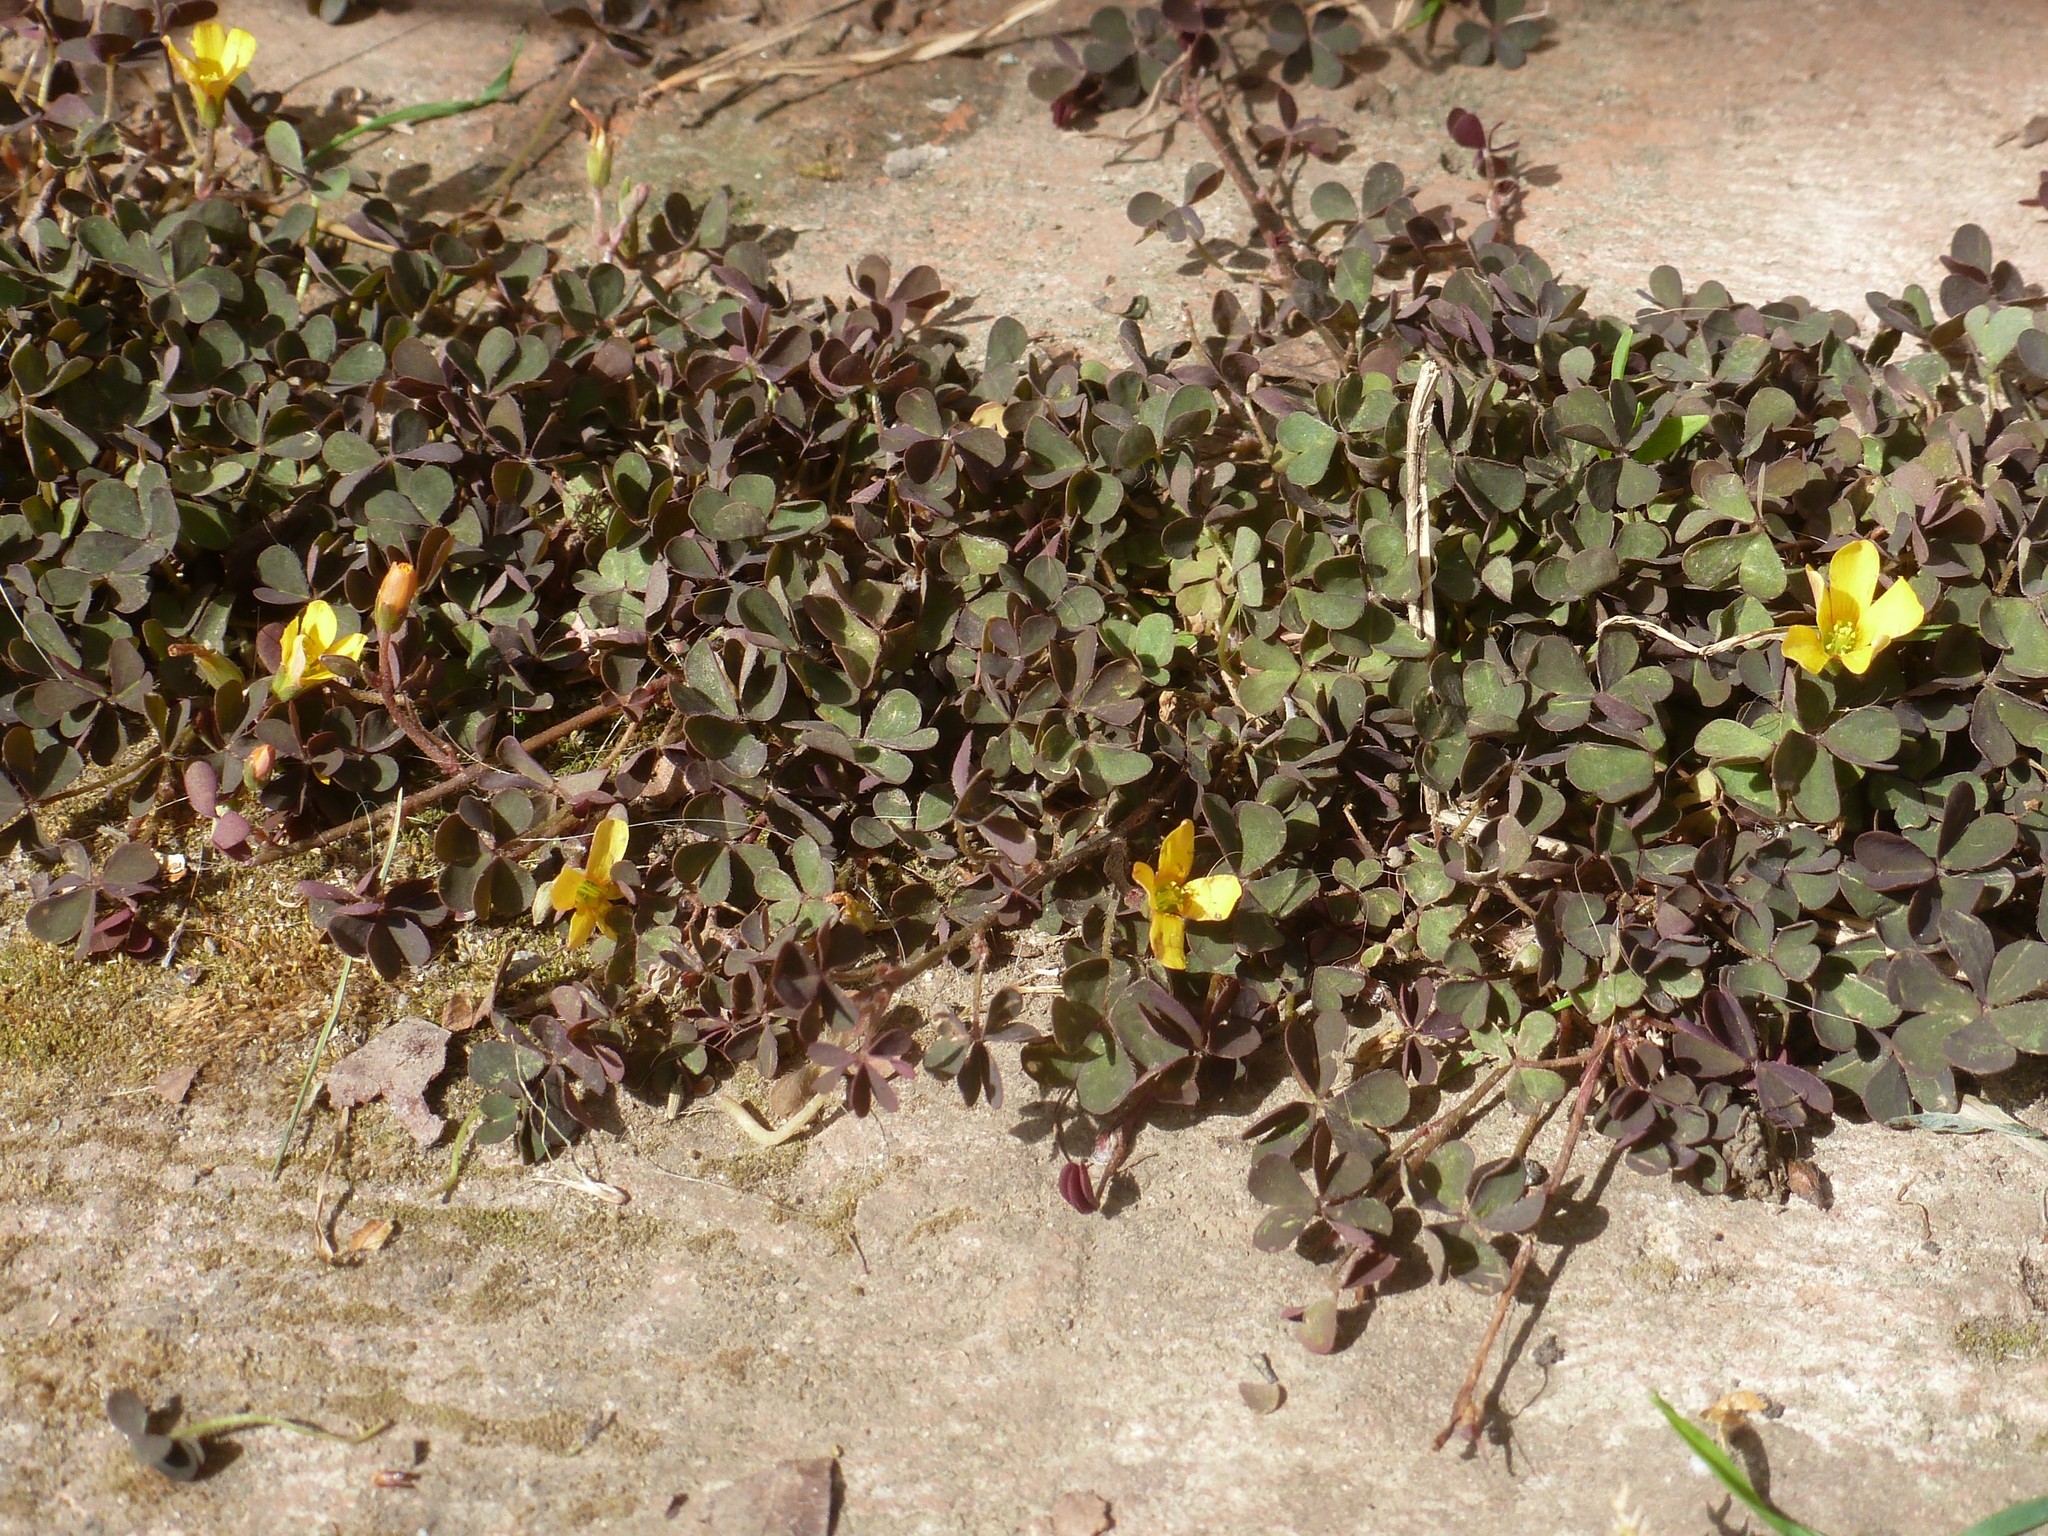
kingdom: Plantae
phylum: Tracheophyta
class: Magnoliopsida
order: Oxalidales
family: Oxalidaceae
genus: Oxalis
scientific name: Oxalis corniculata
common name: Procumbent yellow-sorrel
